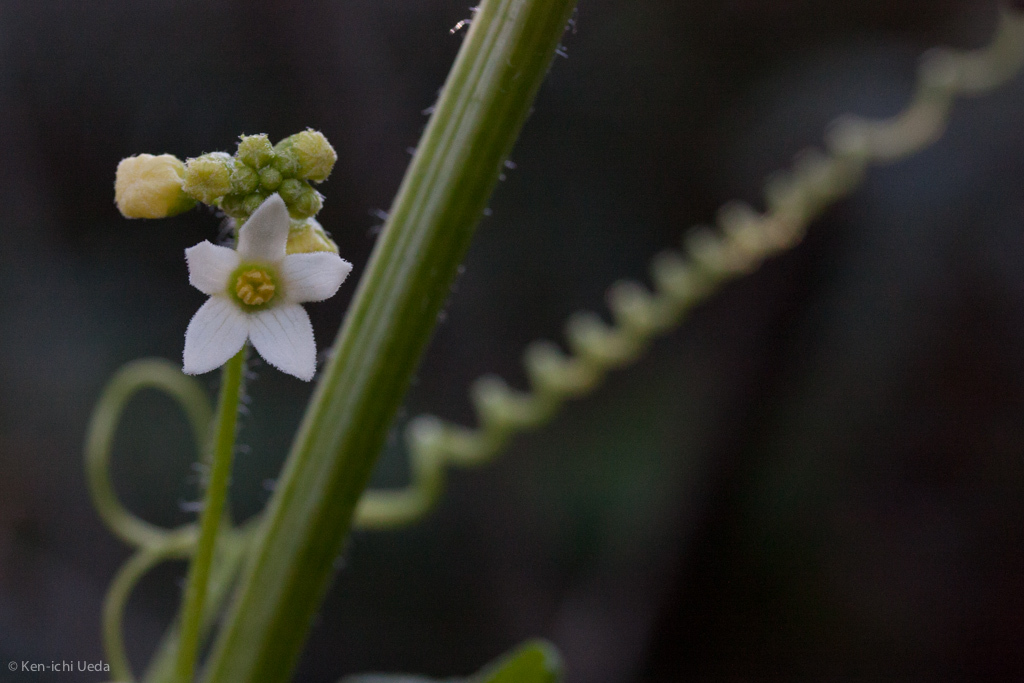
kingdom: Plantae
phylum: Tracheophyta
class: Magnoliopsida
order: Cucurbitales
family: Cucurbitaceae
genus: Marah
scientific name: Marah
